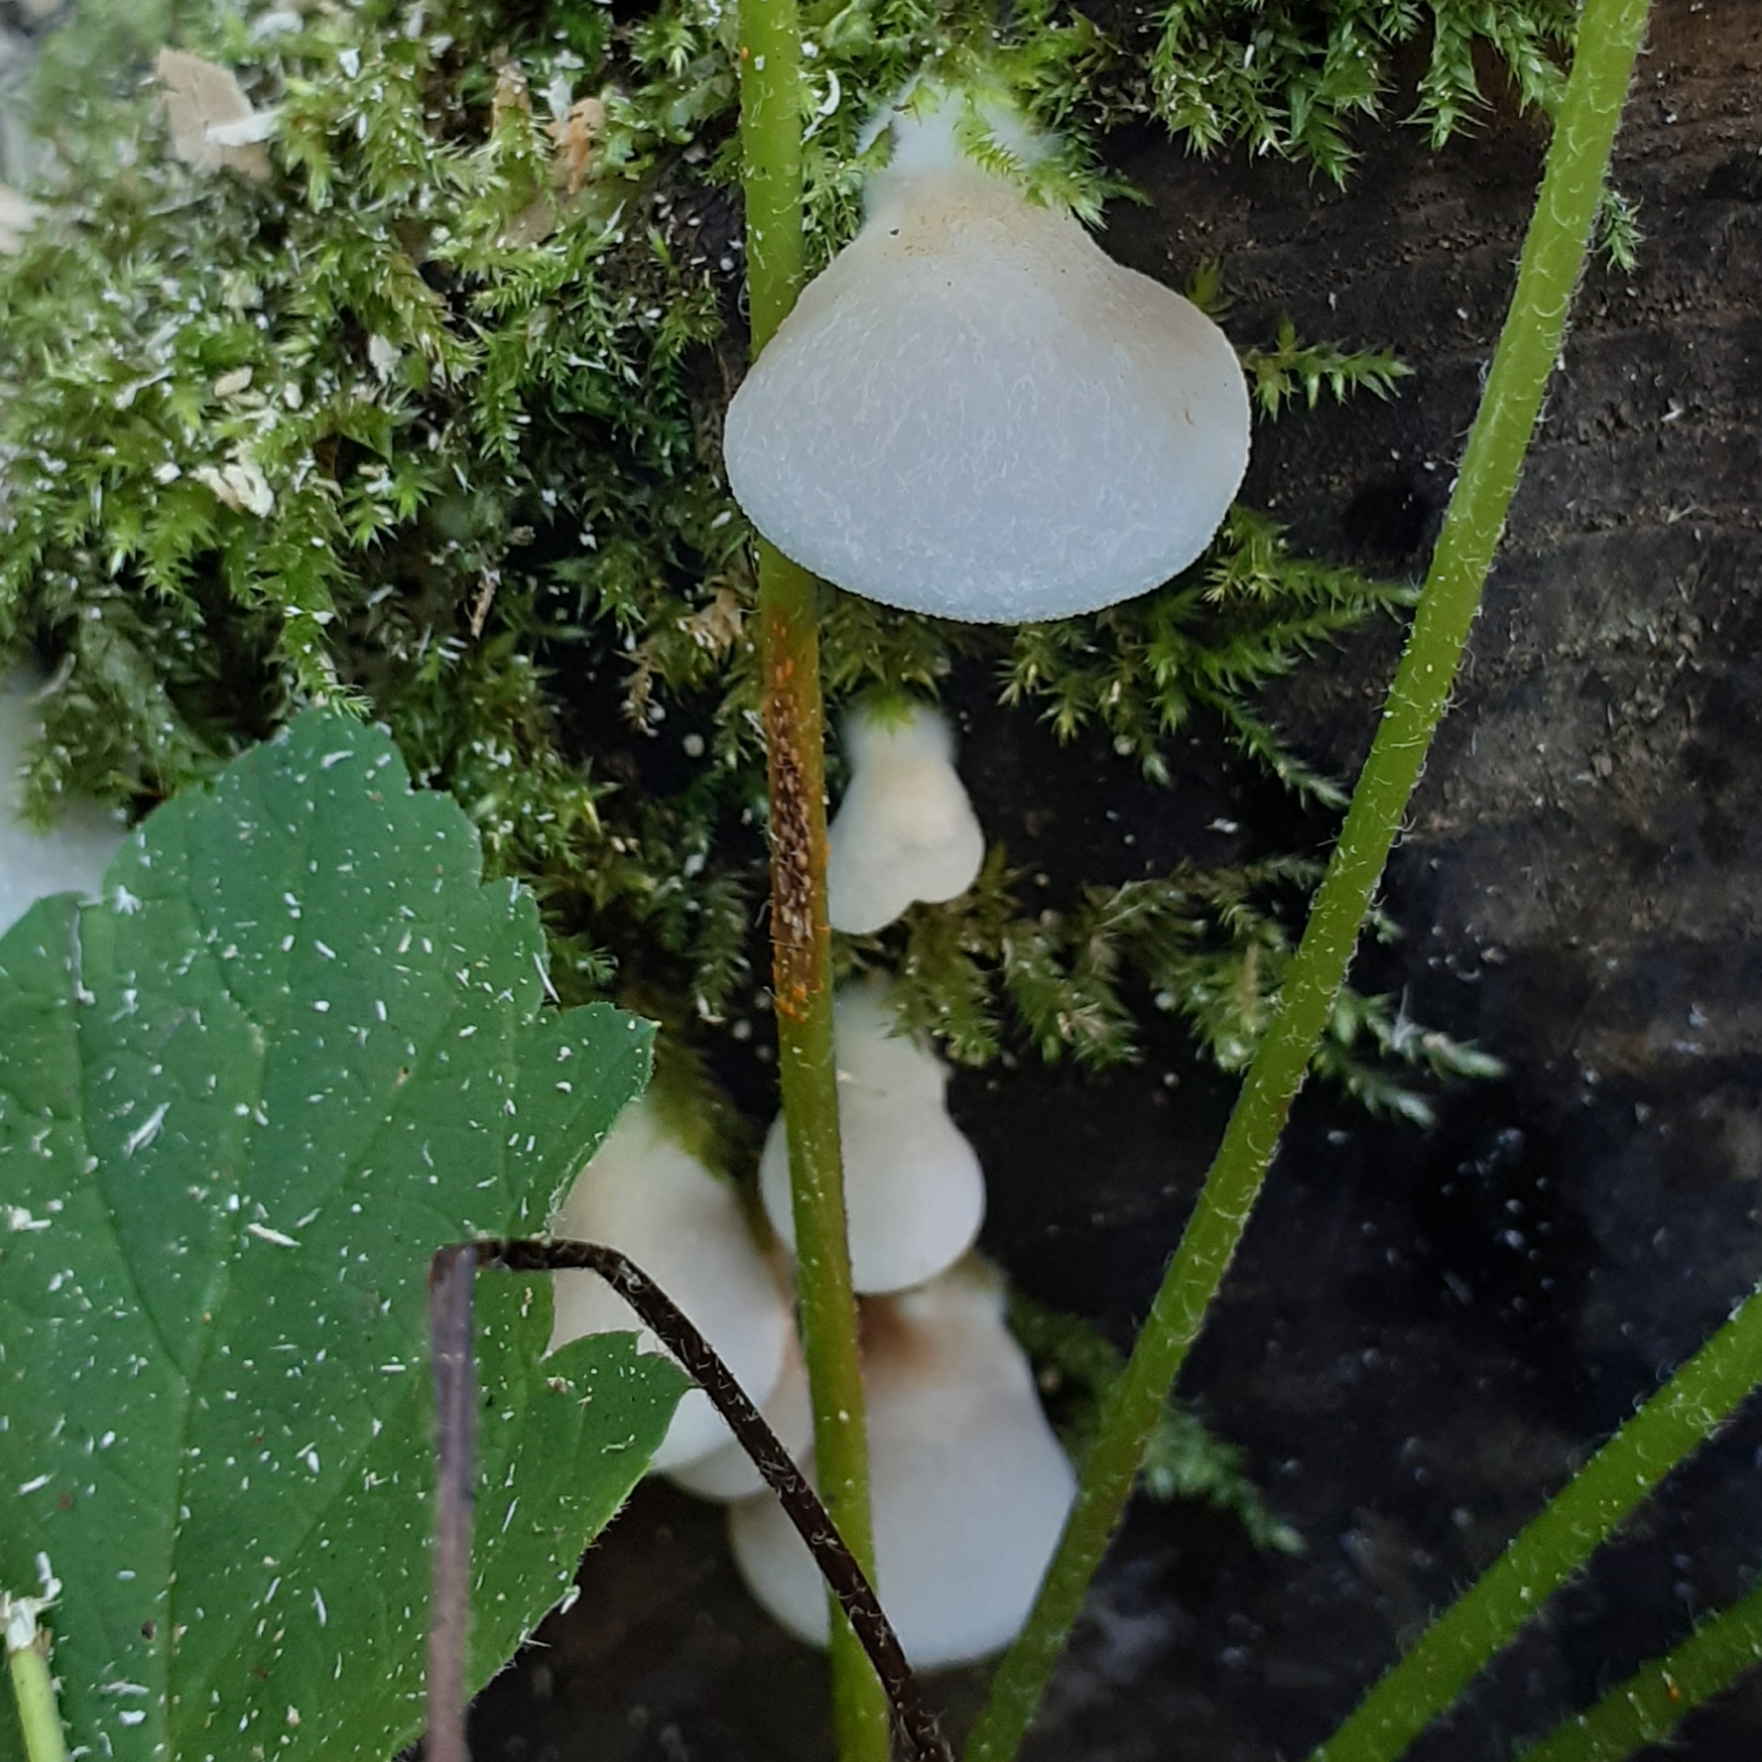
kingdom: Fungi
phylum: Basidiomycota
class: Agaricomycetes
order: Agaricales
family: Crepidotaceae
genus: Crepidotus
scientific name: Crepidotus
